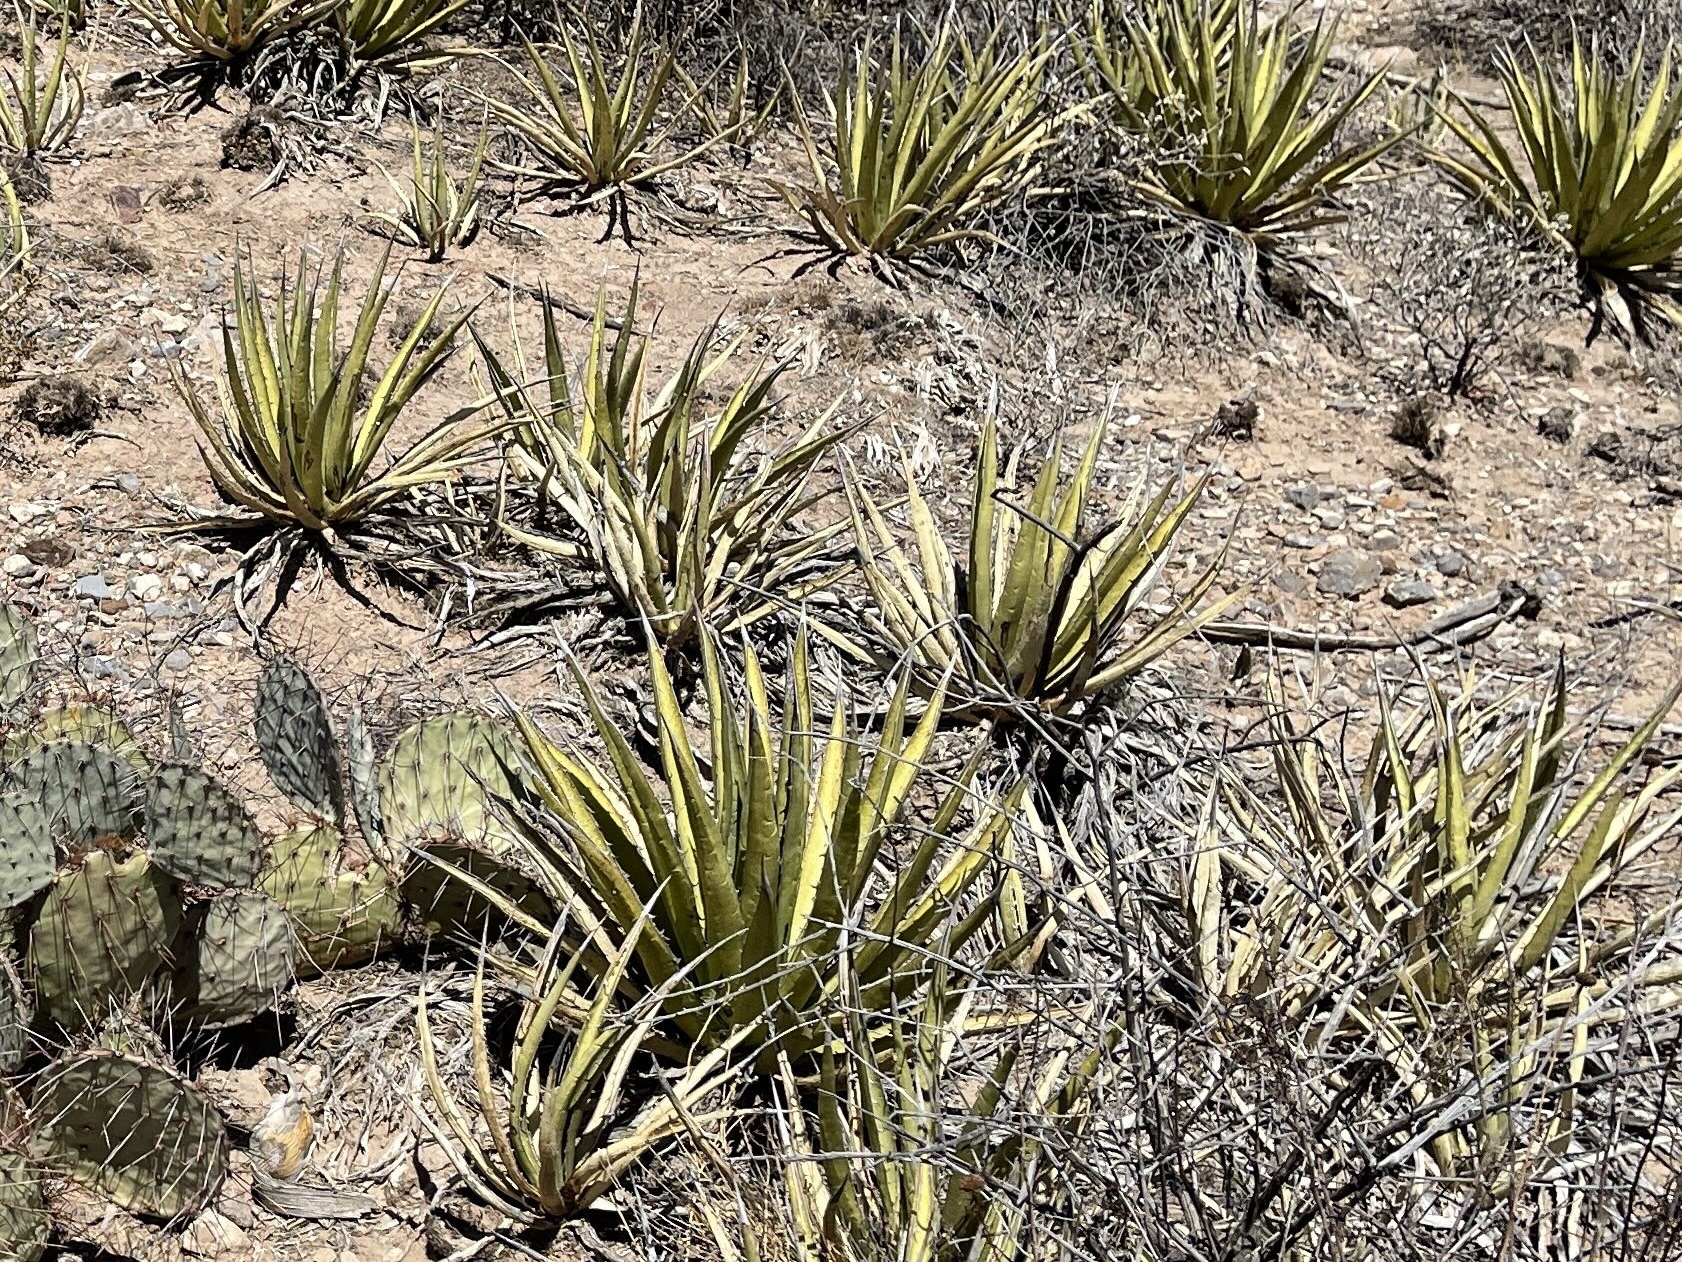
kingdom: Plantae
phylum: Tracheophyta
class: Liliopsida
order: Asparagales
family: Asparagaceae
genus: Agave
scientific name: Agave lechuguilla
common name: Lecheguilla agave
